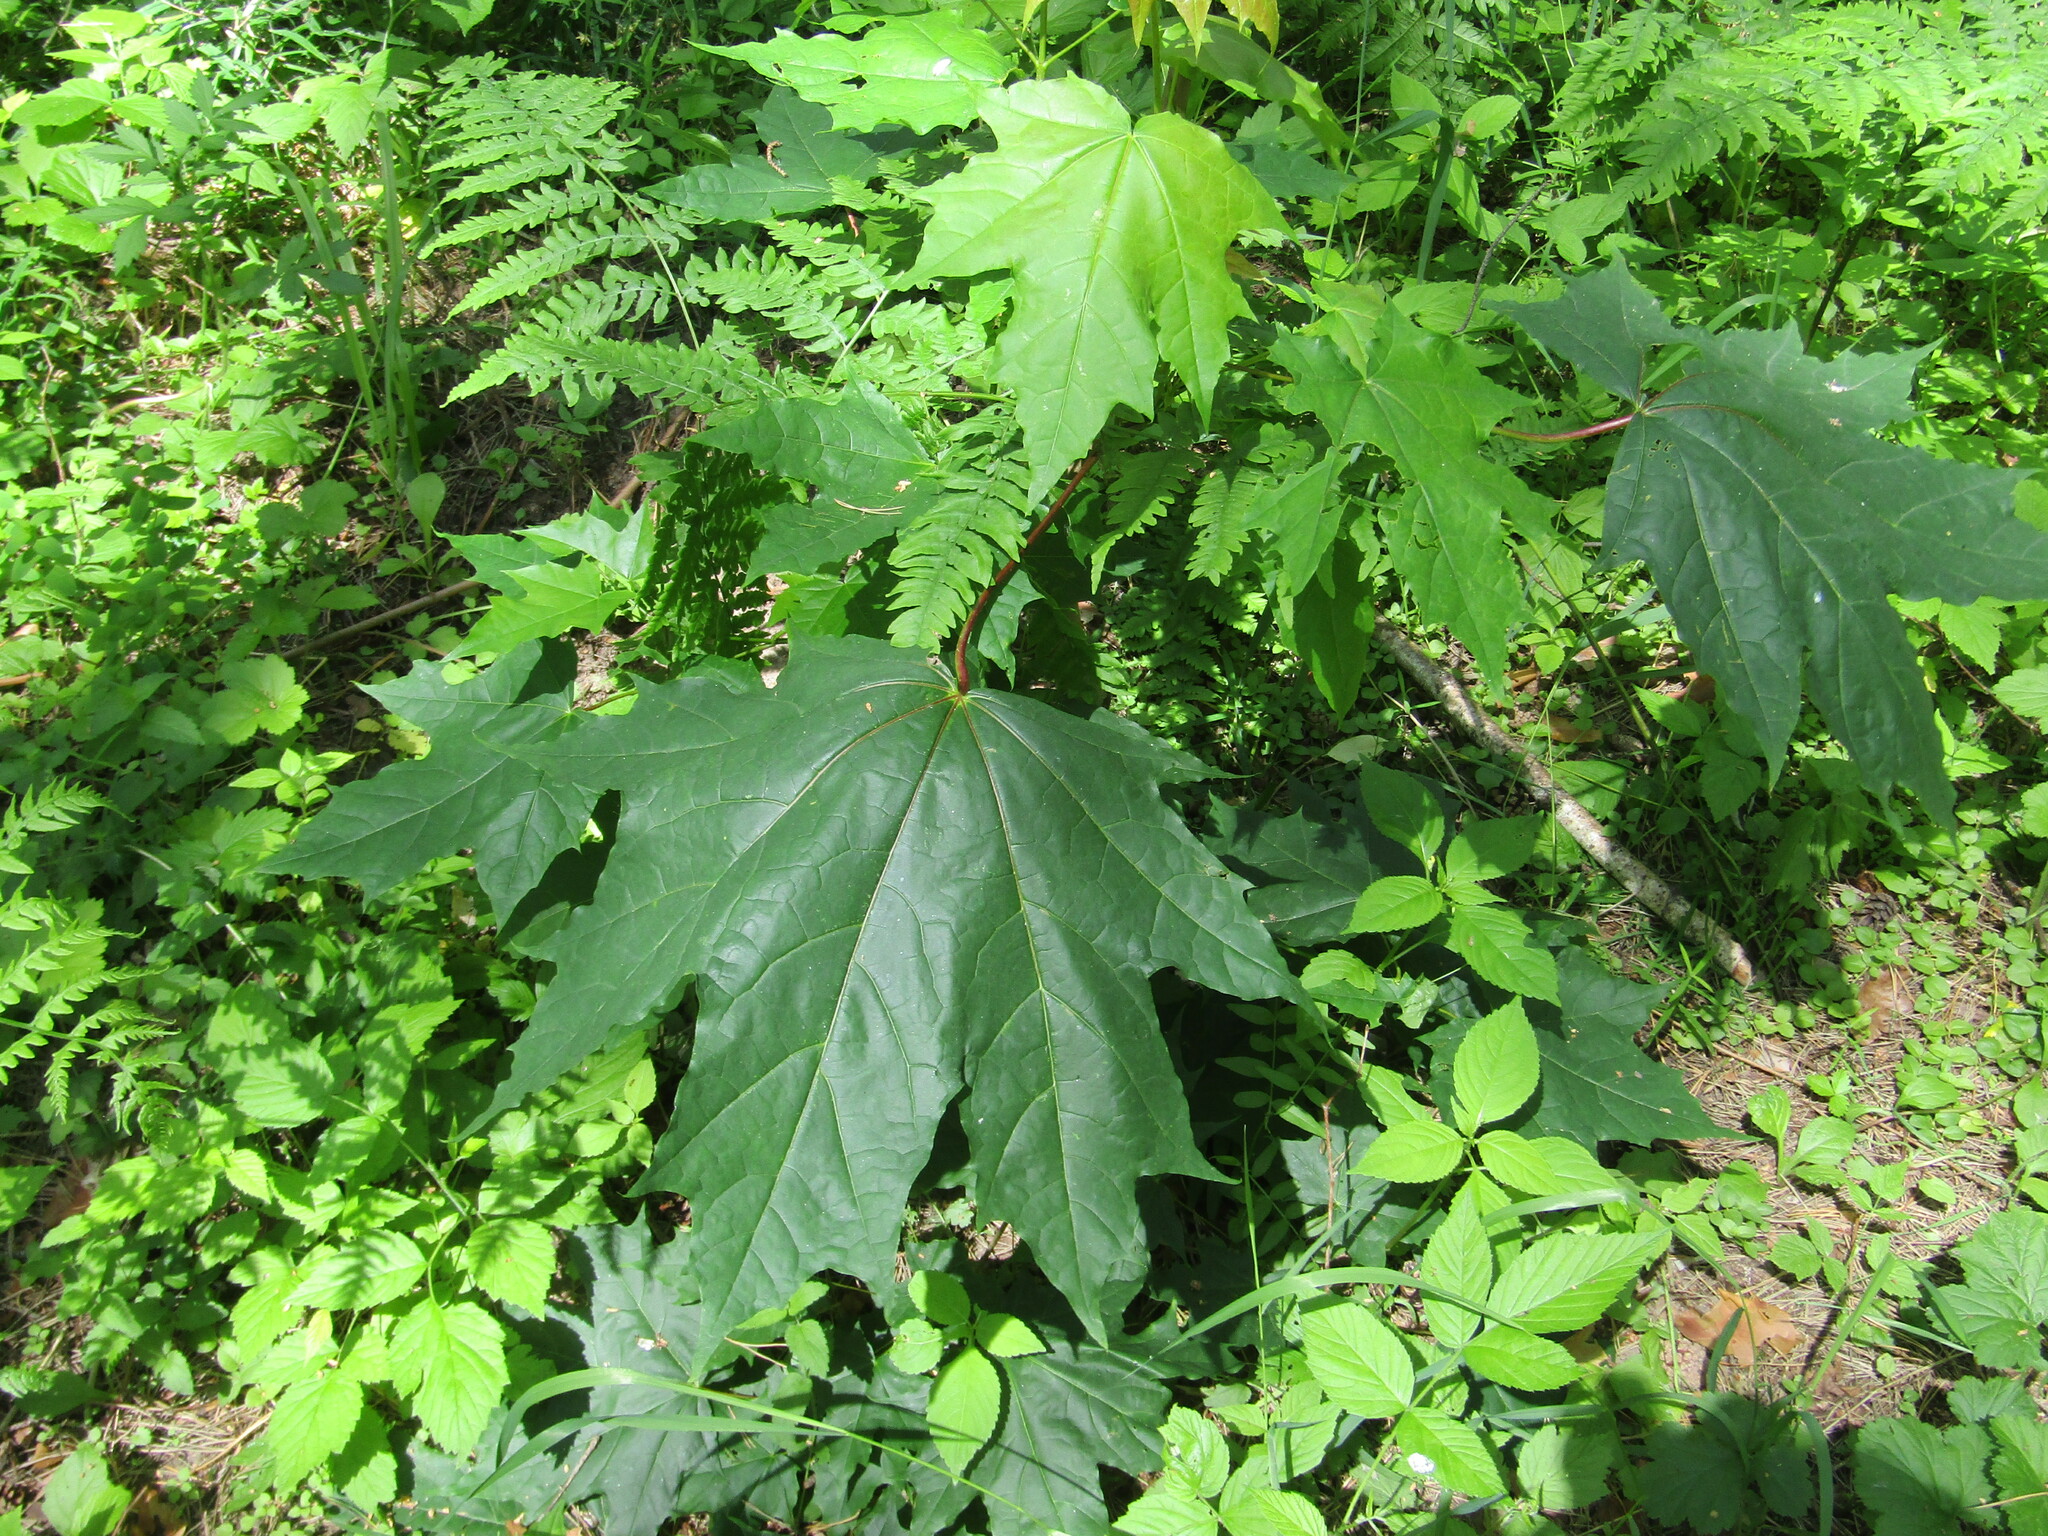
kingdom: Plantae
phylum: Tracheophyta
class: Magnoliopsida
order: Sapindales
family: Sapindaceae
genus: Acer
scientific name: Acer platanoides
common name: Norway maple
